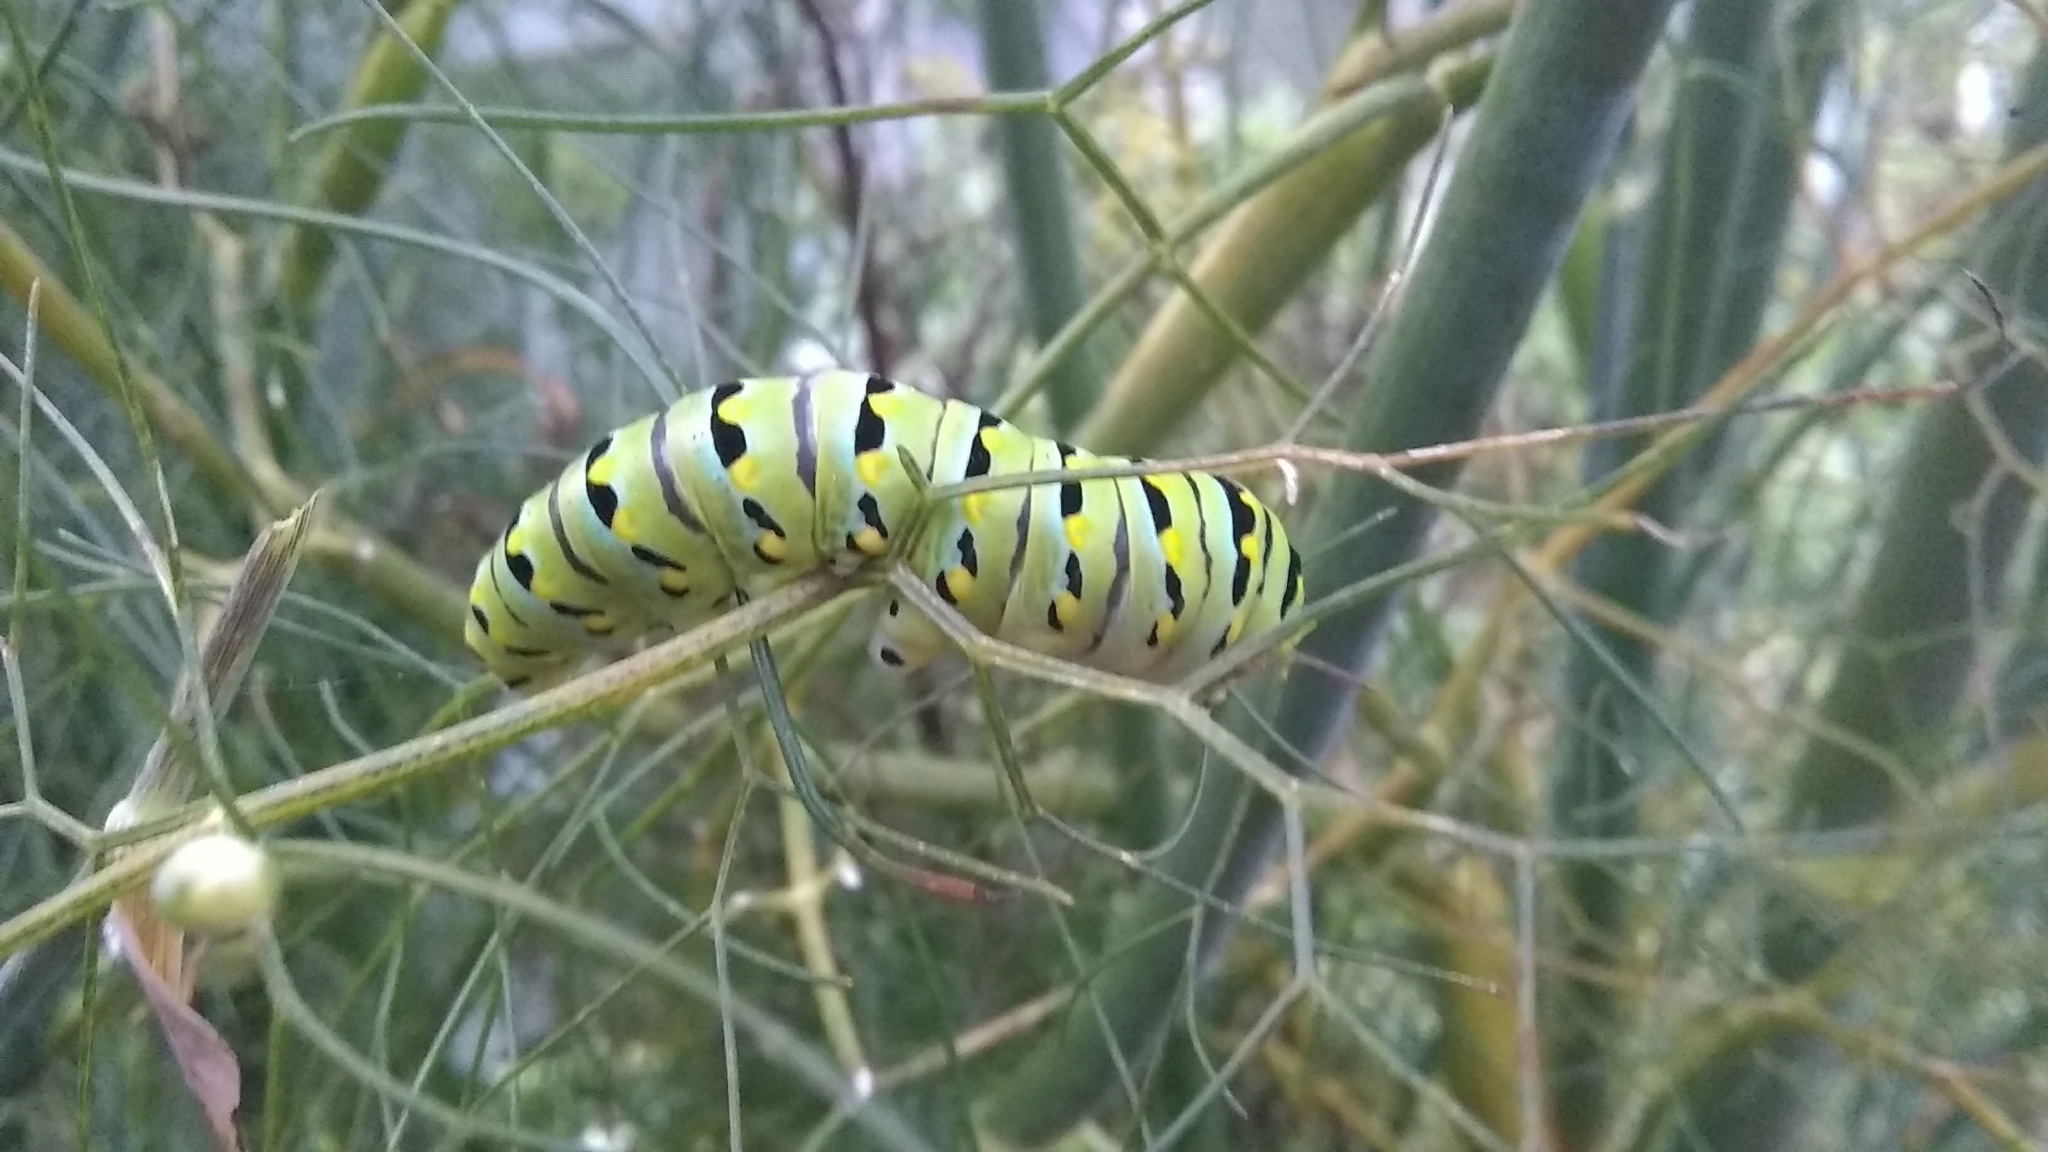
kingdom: Animalia
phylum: Arthropoda
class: Insecta
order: Lepidoptera
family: Papilionidae
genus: Papilio
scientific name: Papilio polyxenes
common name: Black swallowtail
